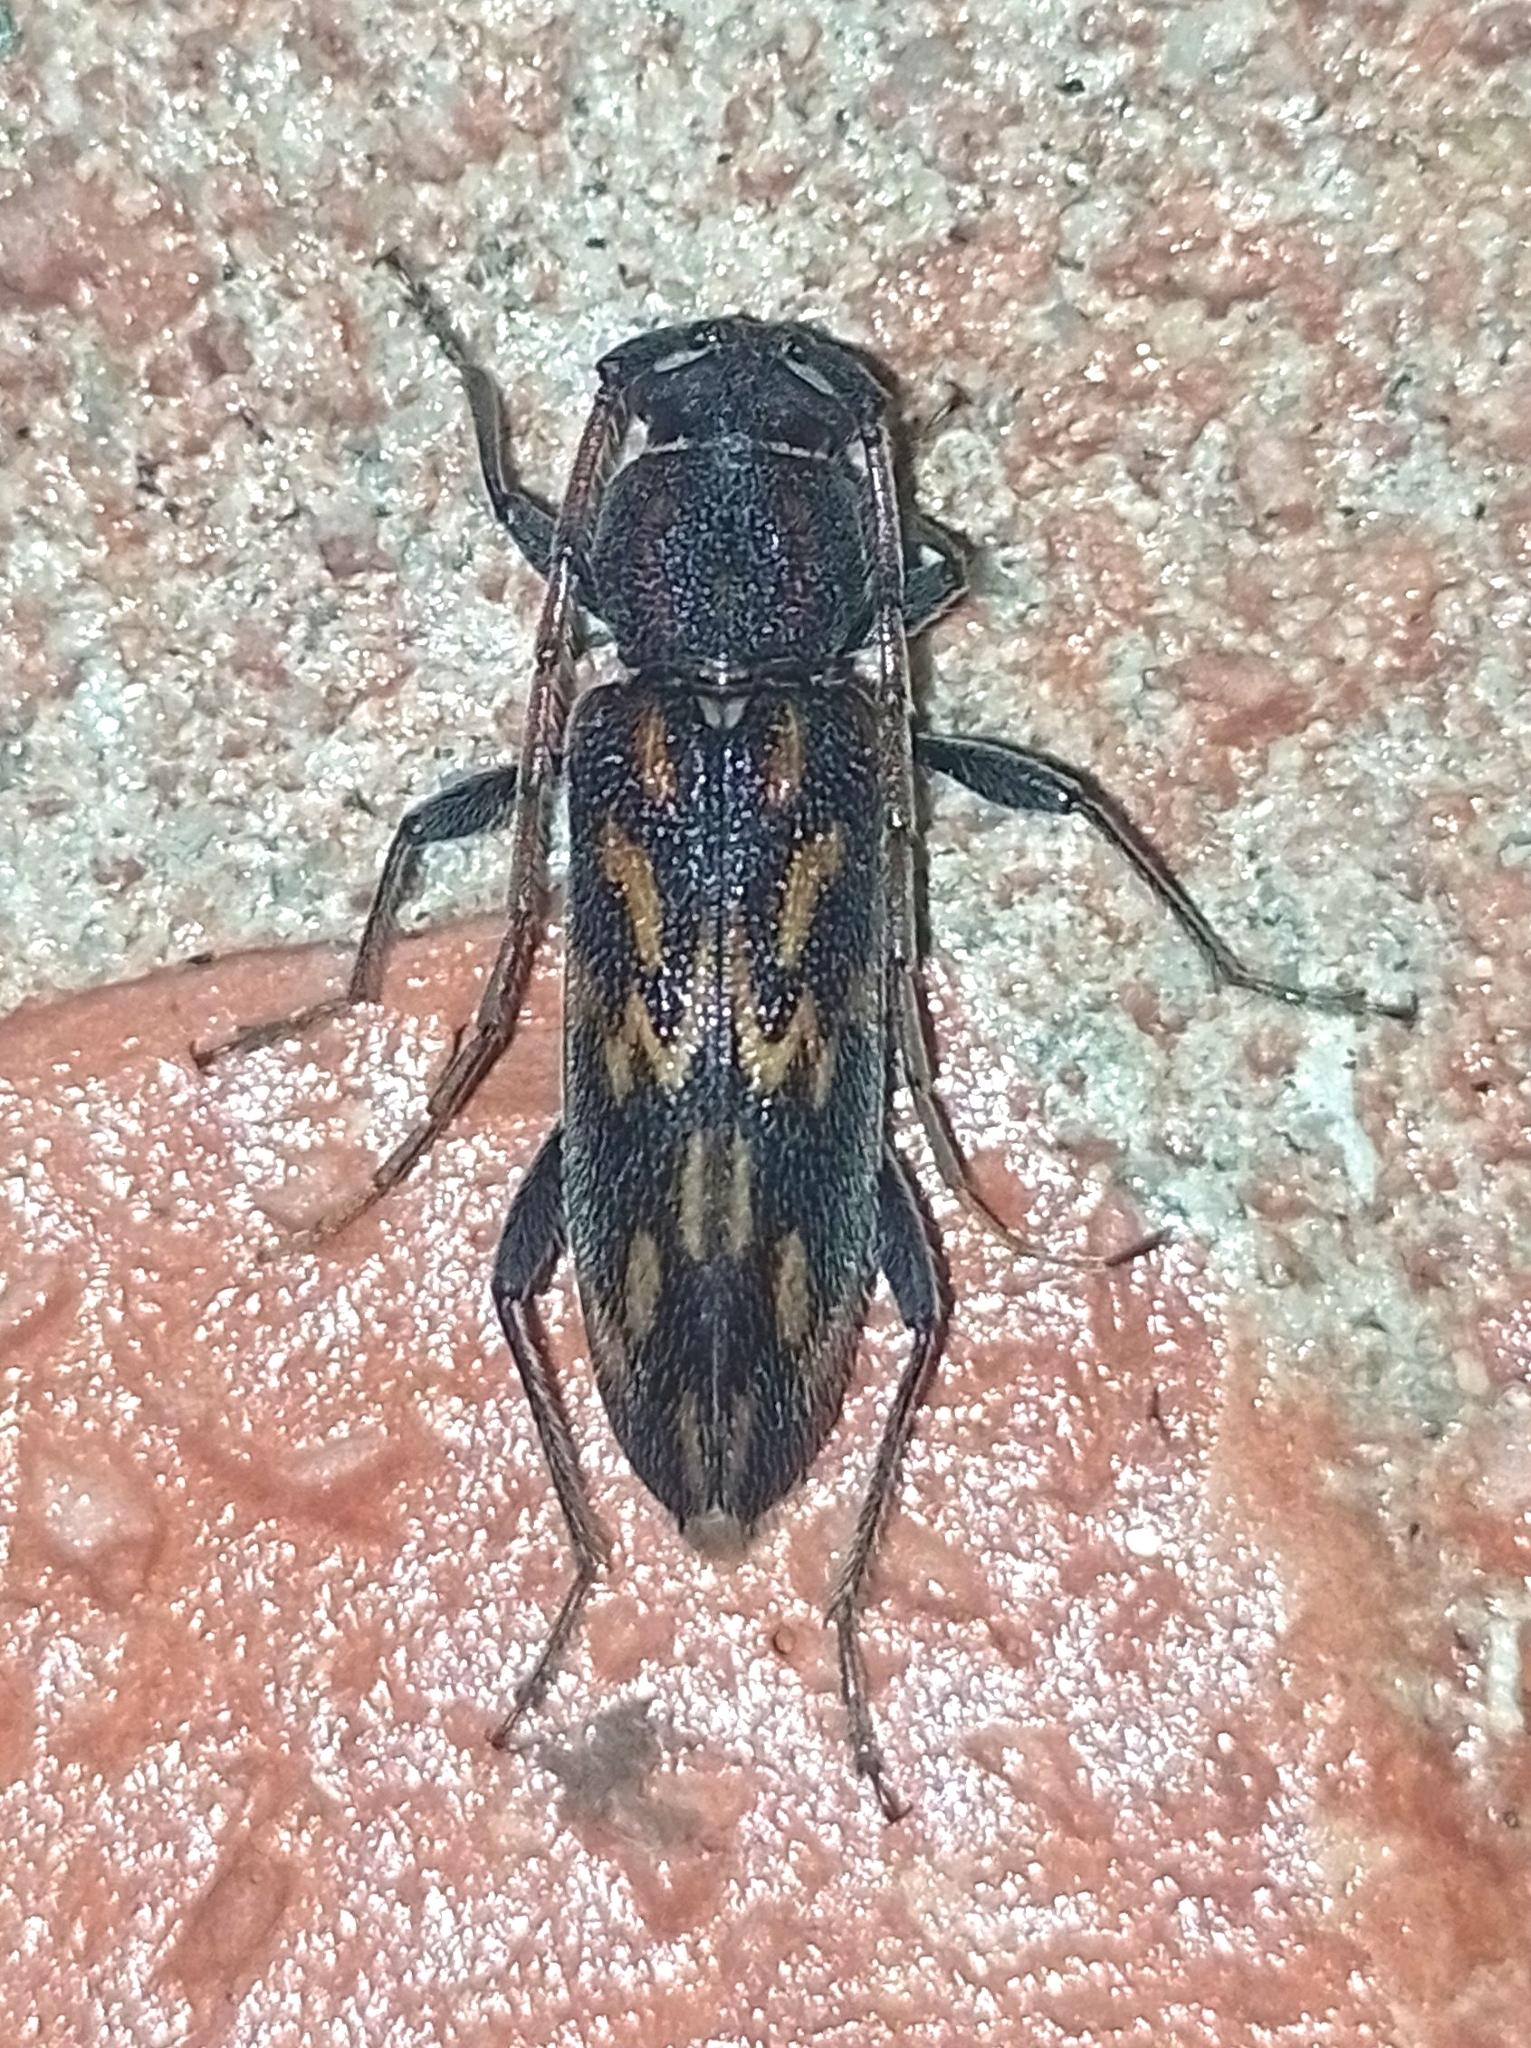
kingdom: Animalia
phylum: Arthropoda
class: Insecta
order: Coleoptera
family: Cerambycidae
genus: Achryson
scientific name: Achryson undulatum
